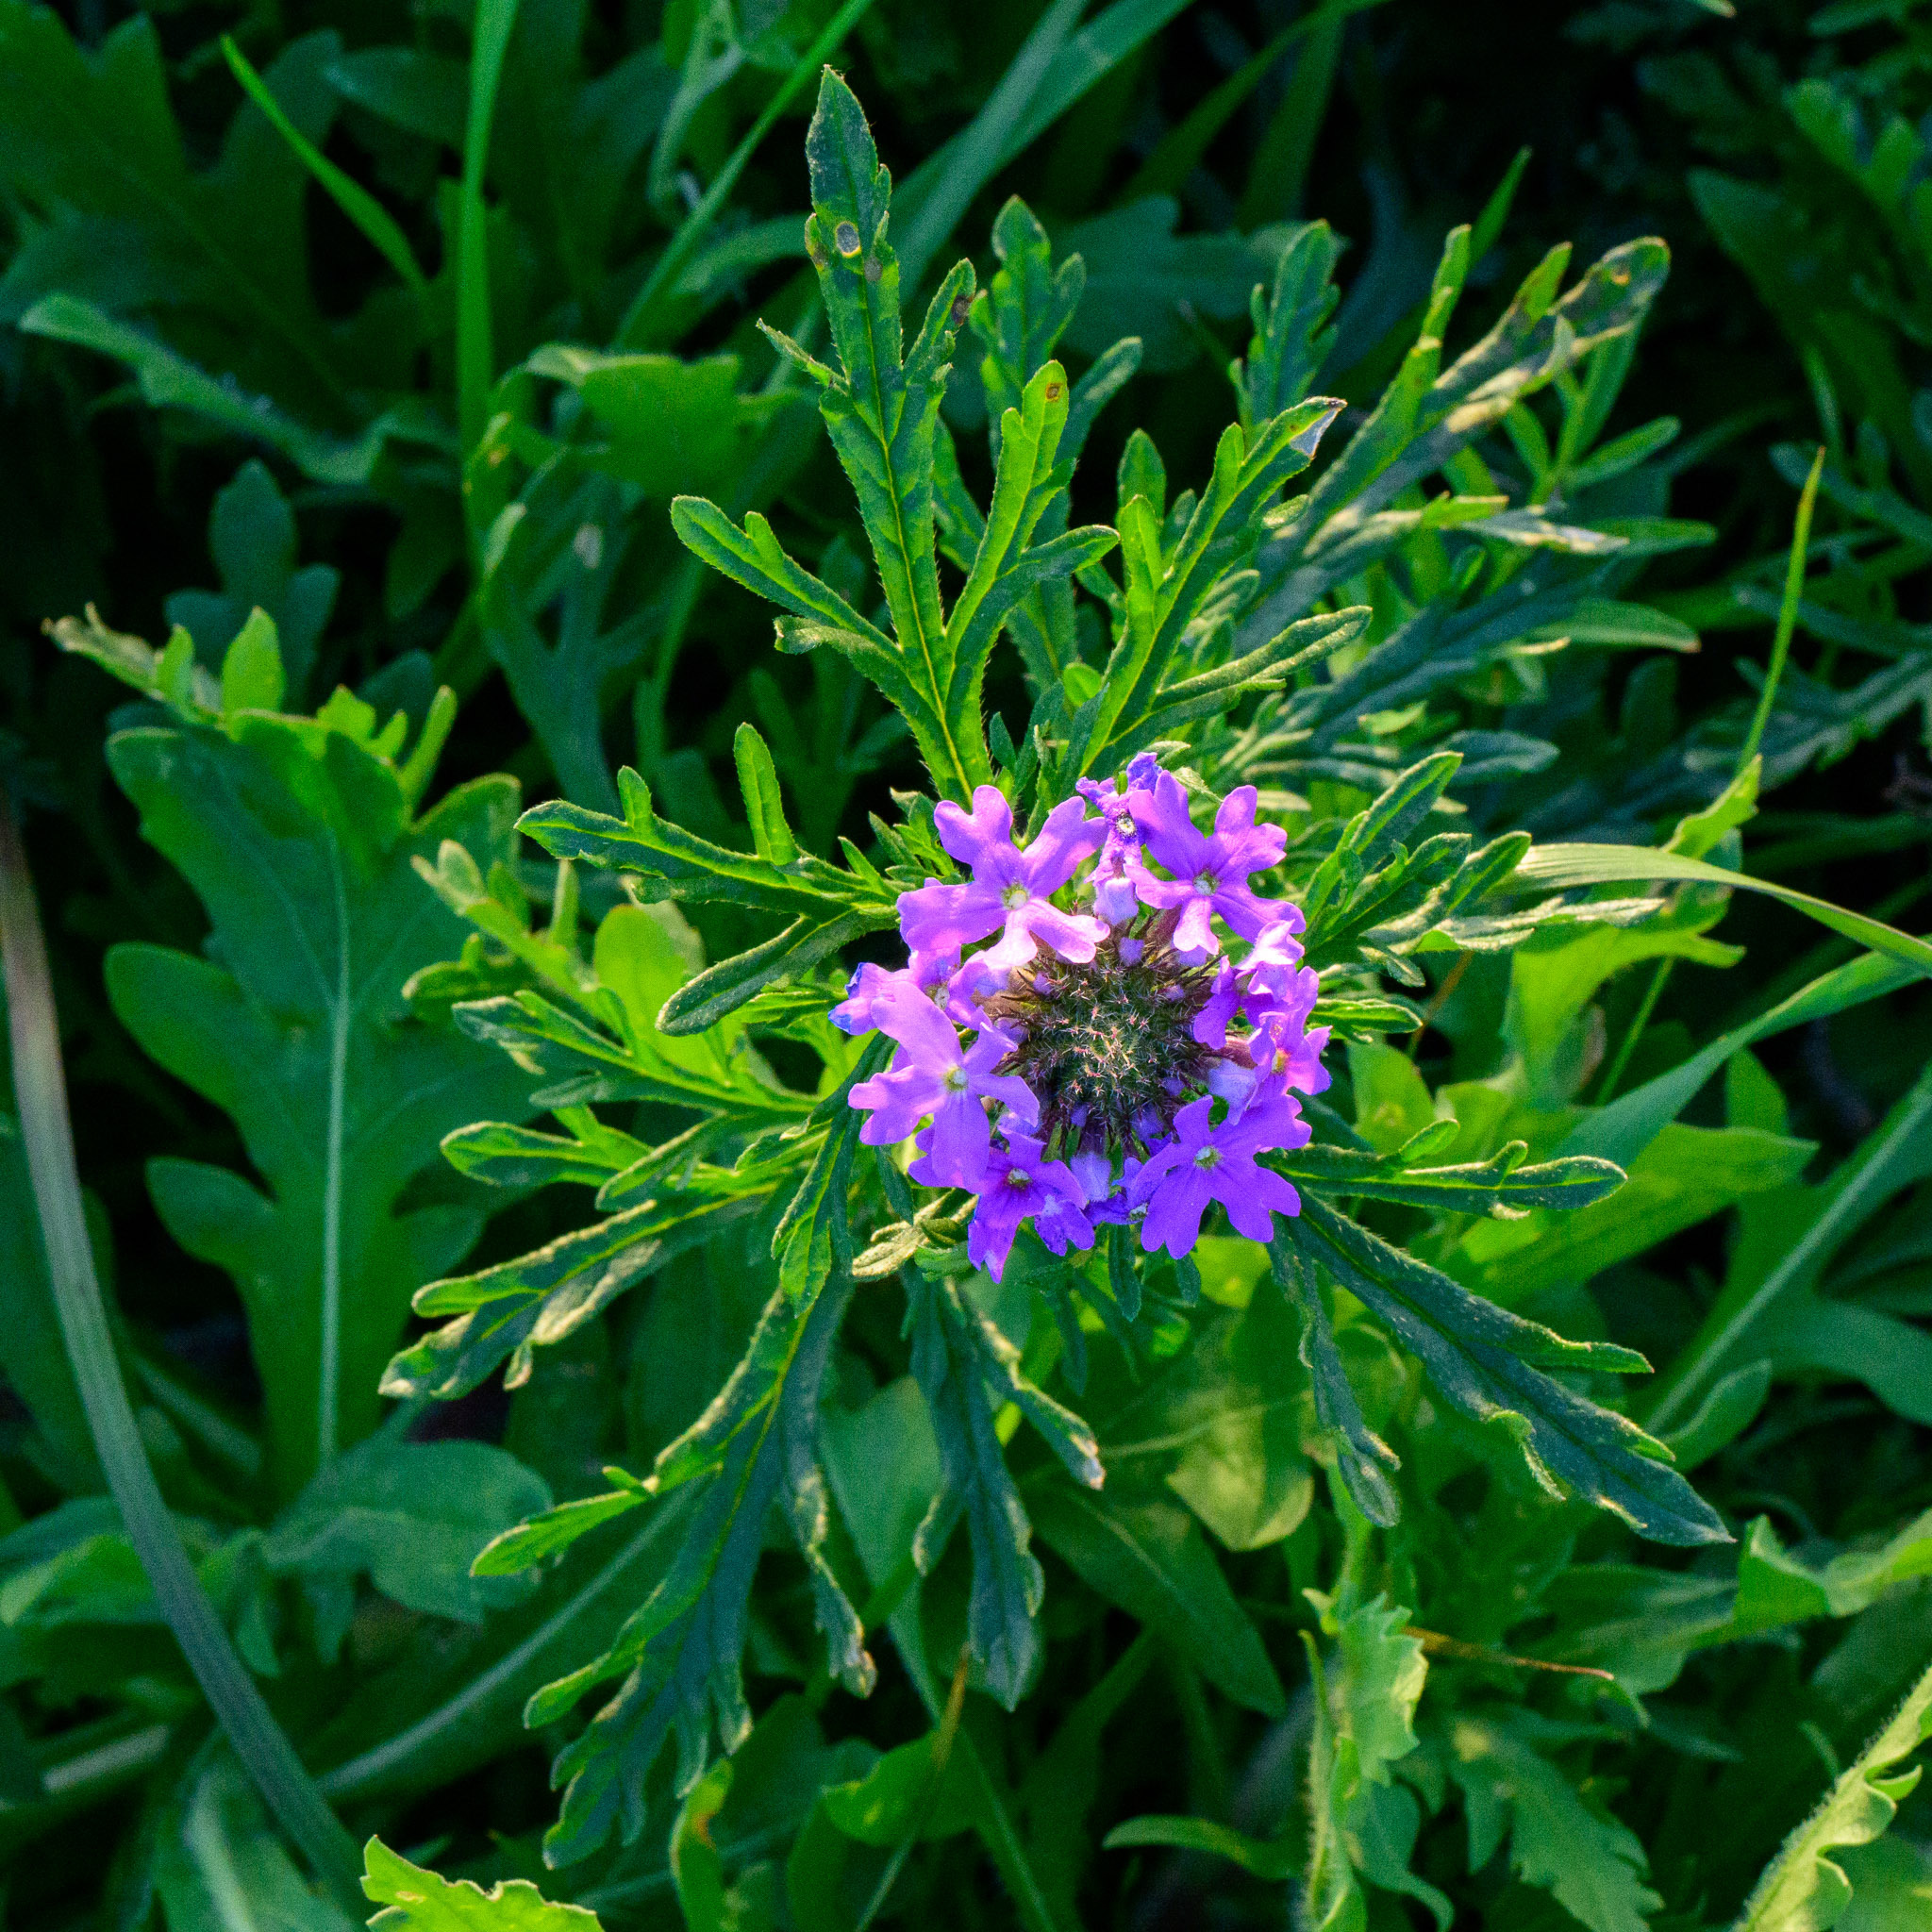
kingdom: Plantae
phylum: Tracheophyta
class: Magnoliopsida
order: Lamiales
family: Verbenaceae
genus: Verbena
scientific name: Verbena bipinnatifida
